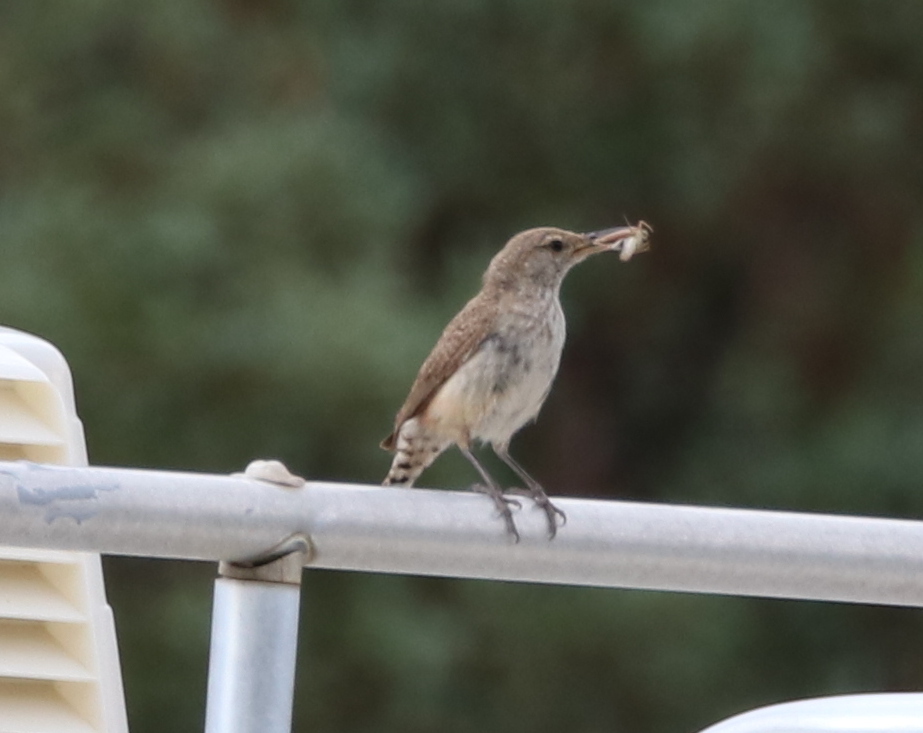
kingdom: Animalia
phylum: Chordata
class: Aves
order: Passeriformes
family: Troglodytidae
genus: Salpinctes
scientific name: Salpinctes obsoletus
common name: Rock wren
